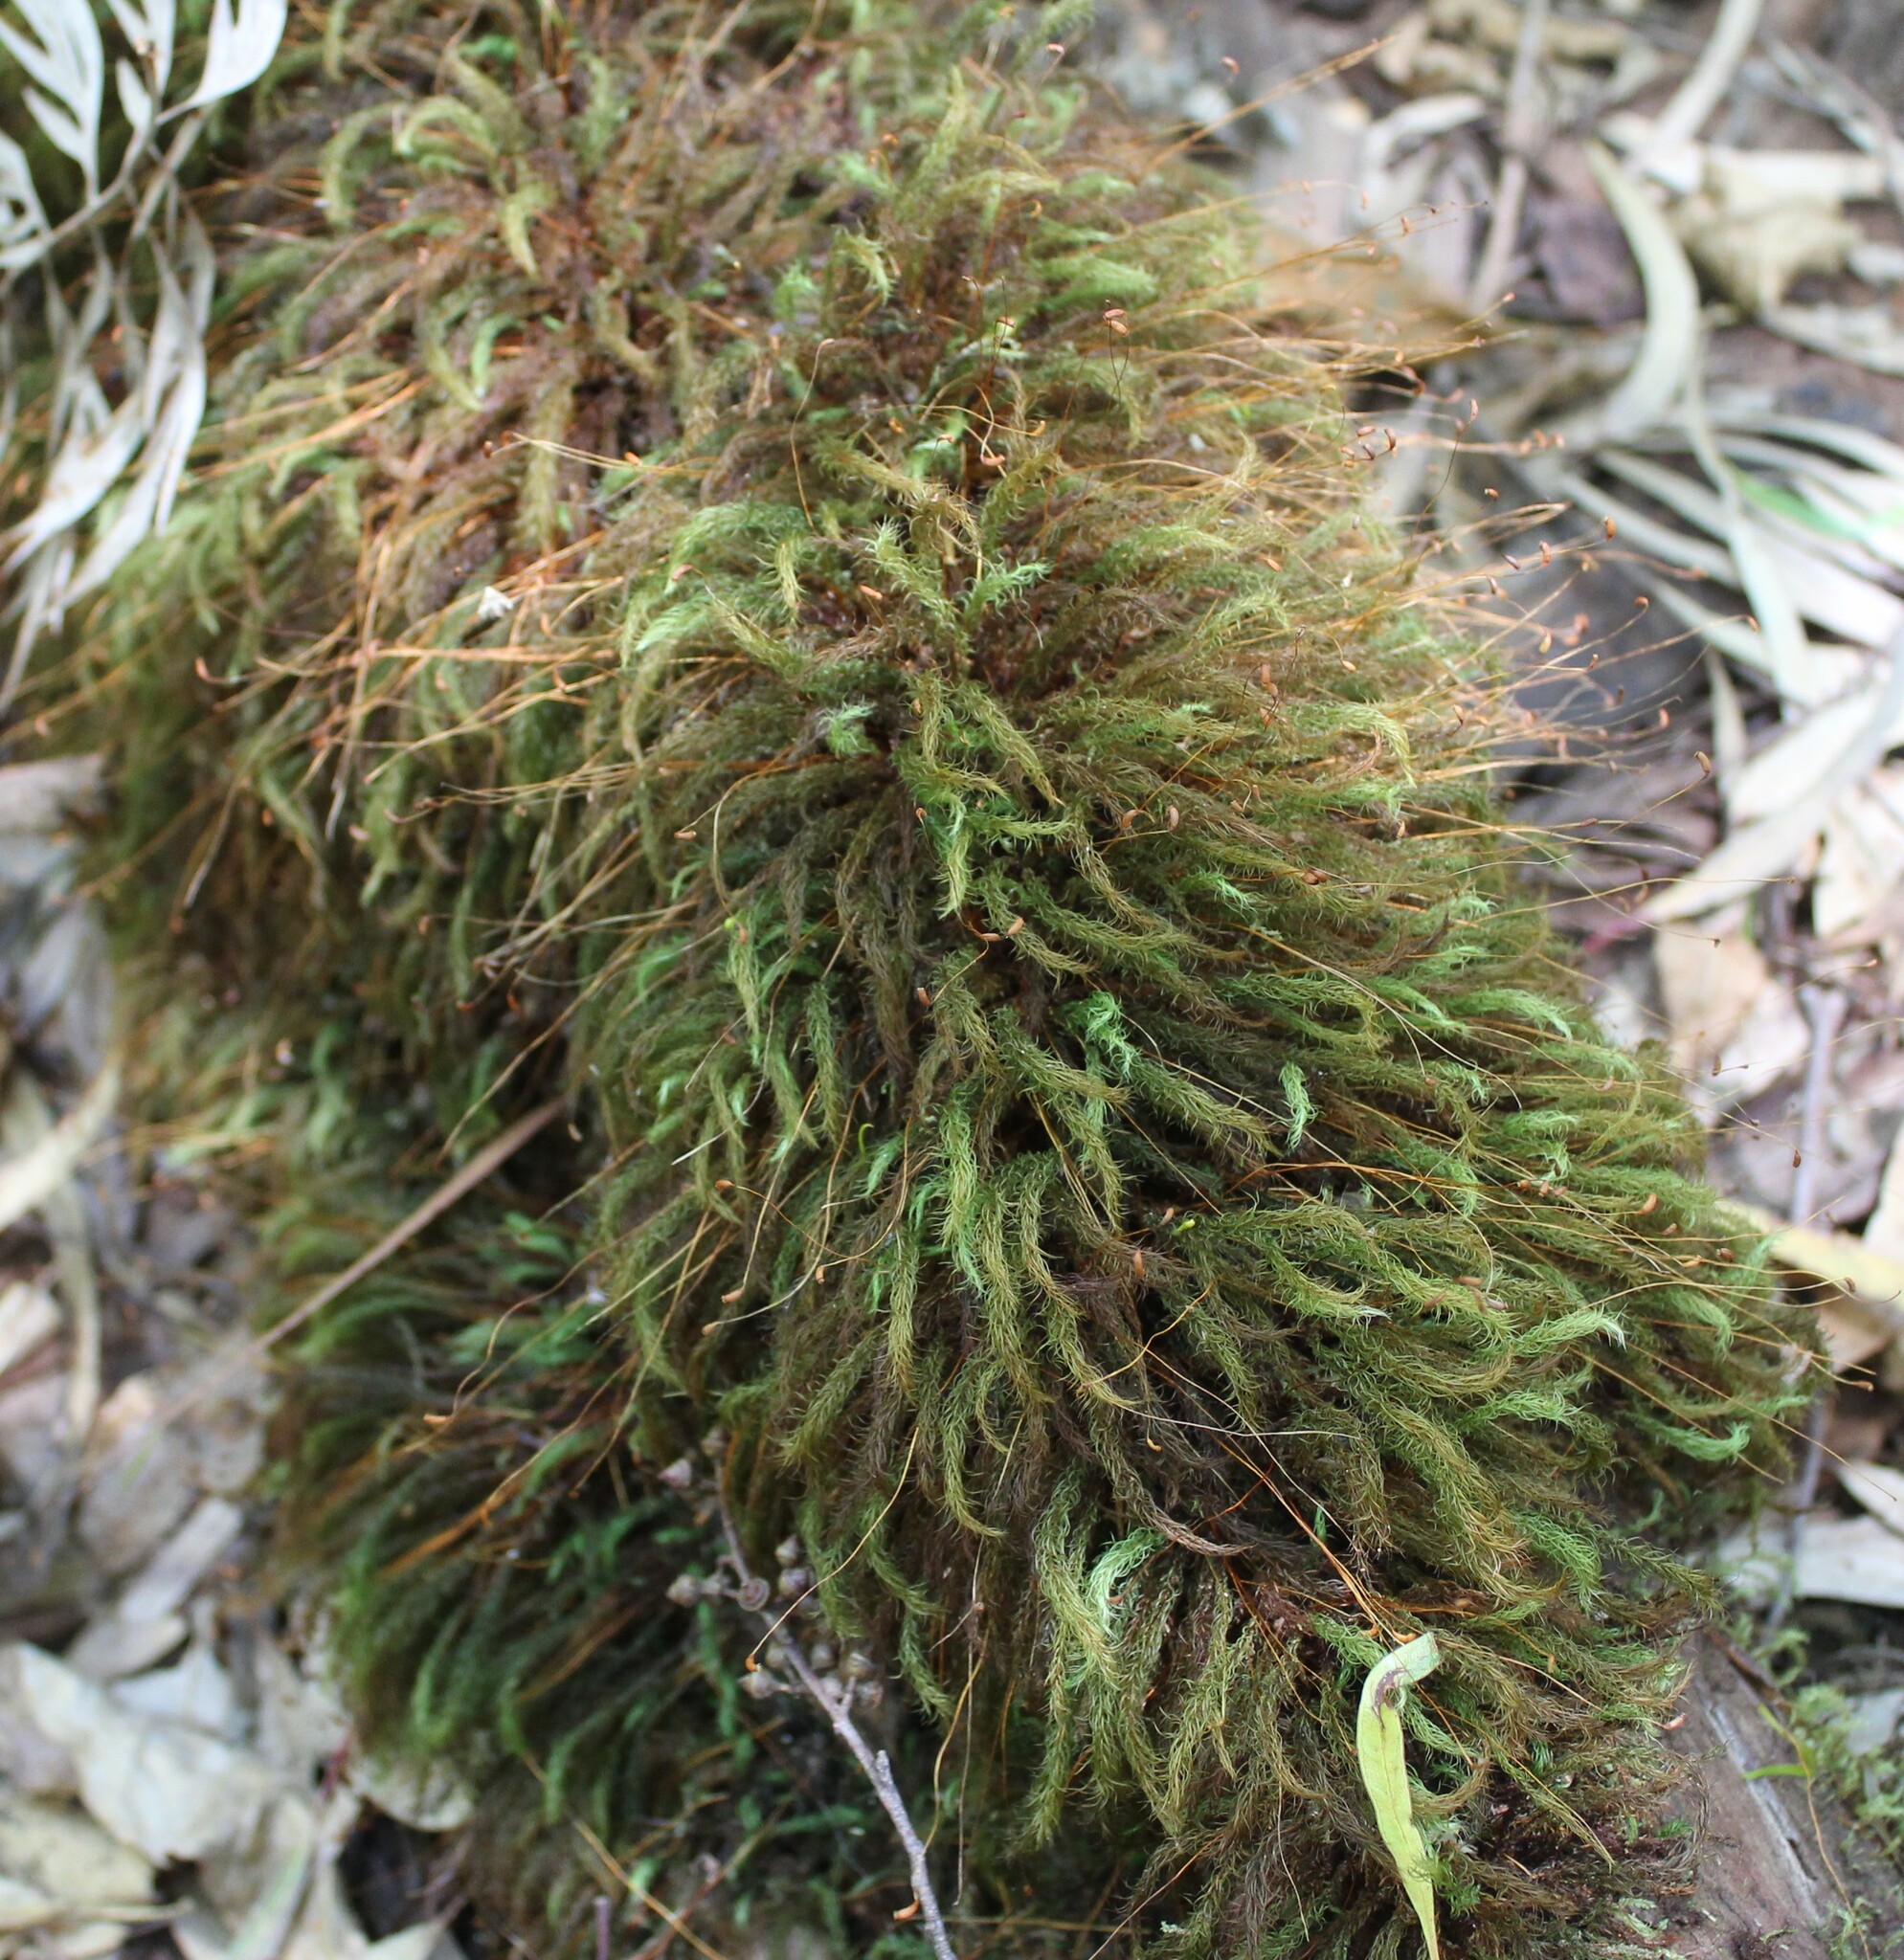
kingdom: Plantae
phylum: Bryophyta
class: Bryopsida
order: Rhizogoniales
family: Calomniaceae
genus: Pyrrhobryum
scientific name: Pyrrhobryum spiniforme
